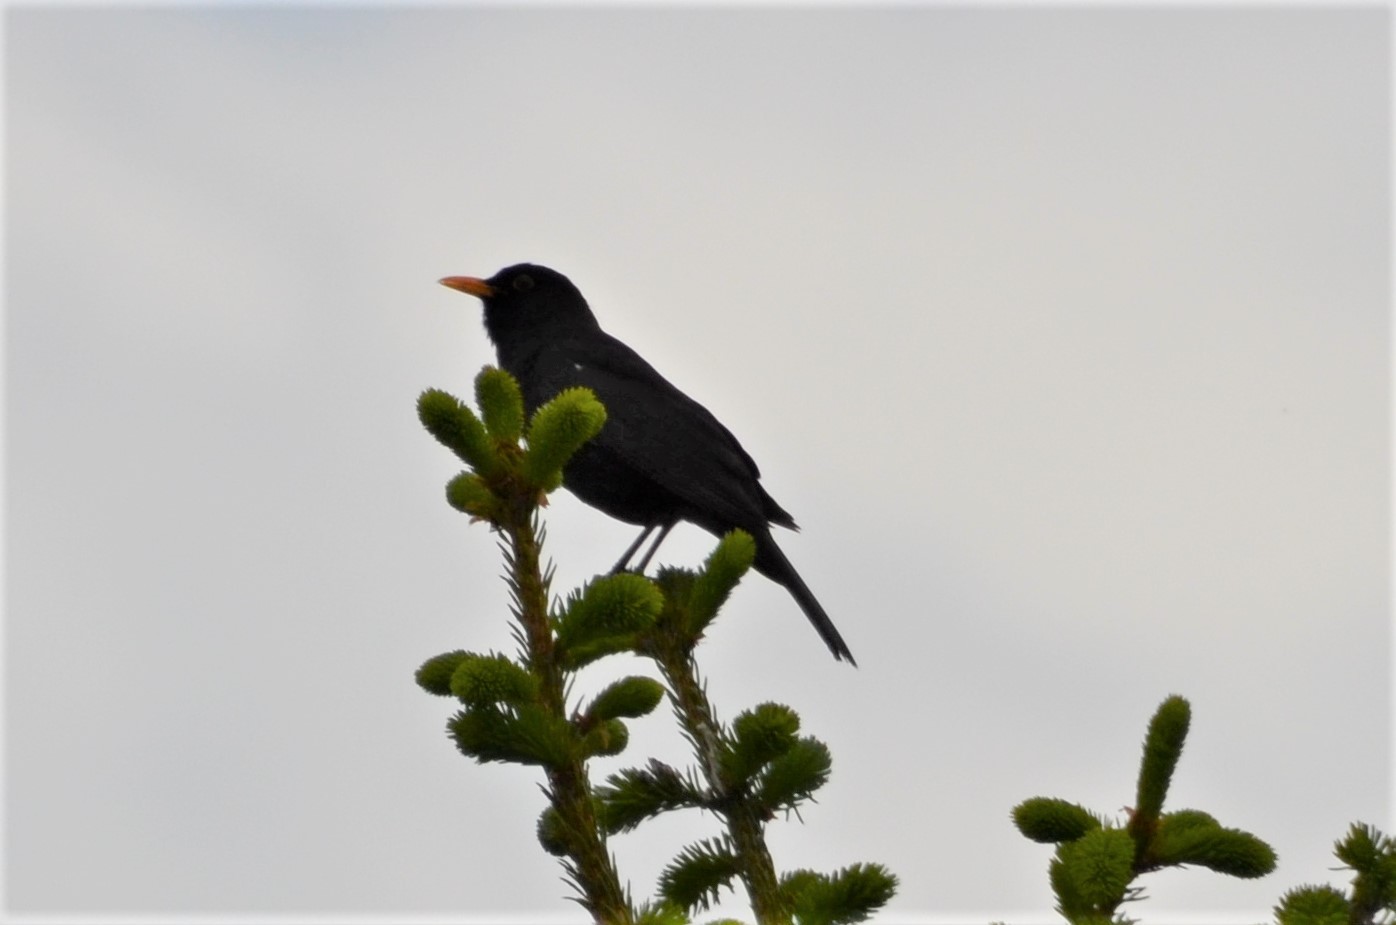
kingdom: Animalia
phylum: Chordata
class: Aves
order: Passeriformes
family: Turdidae
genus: Turdus
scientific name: Turdus merula
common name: Common blackbird
